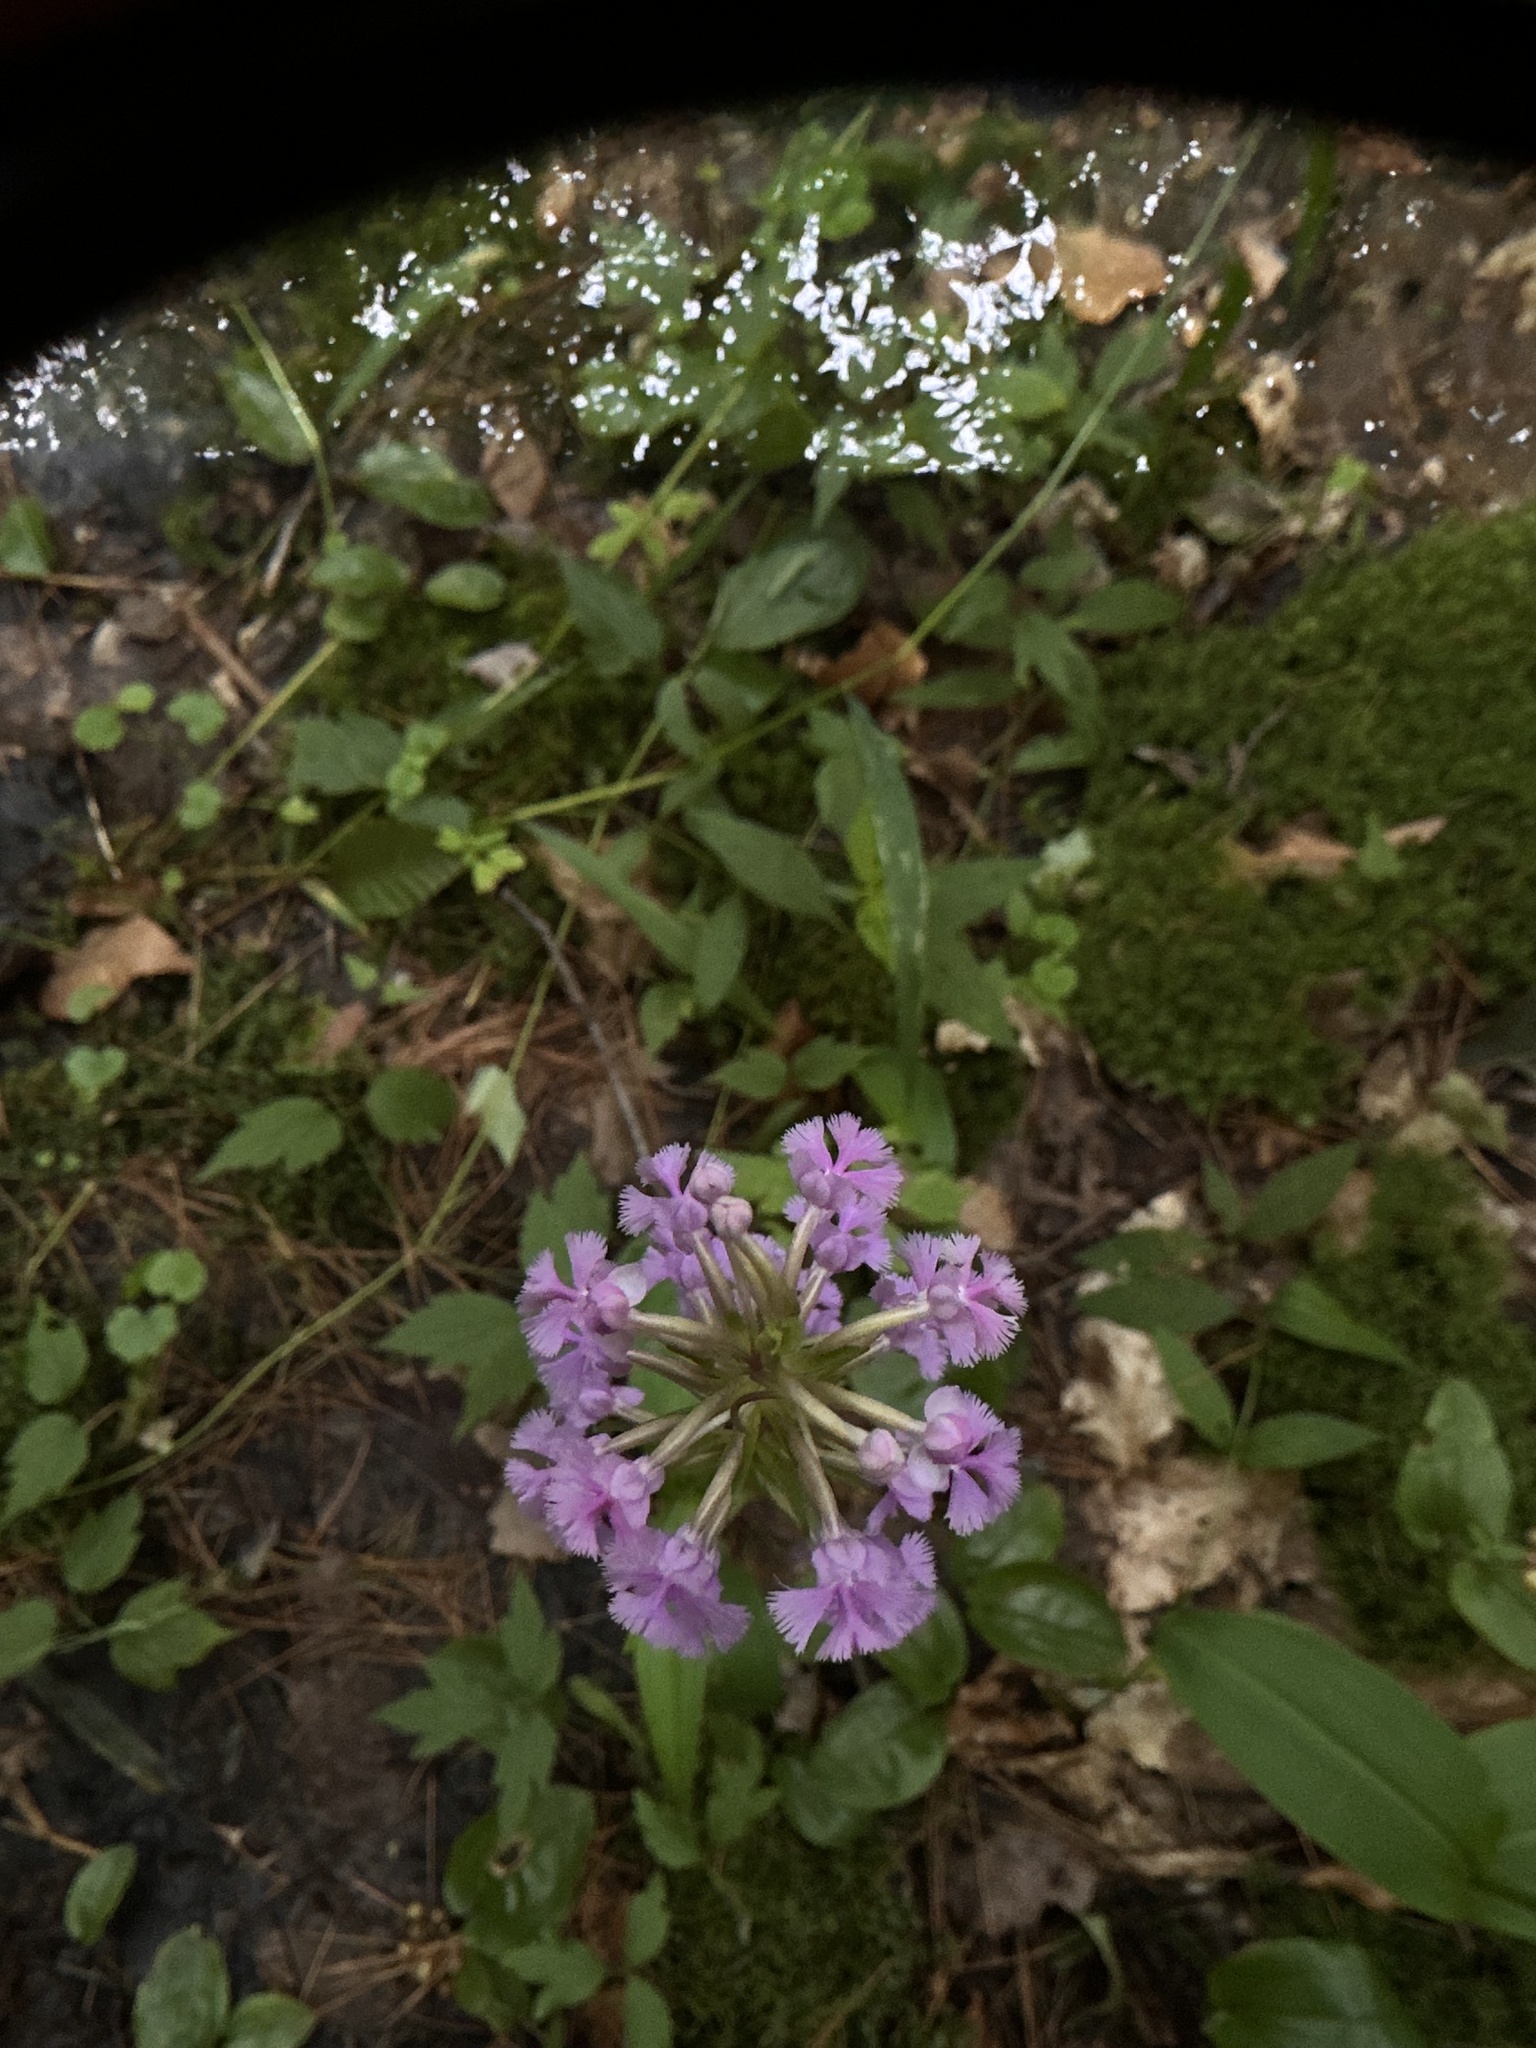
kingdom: Plantae
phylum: Tracheophyta
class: Liliopsida
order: Asparagales
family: Orchidaceae
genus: Platanthera
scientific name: Platanthera psycodes
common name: Lesser purple fringed orchid
